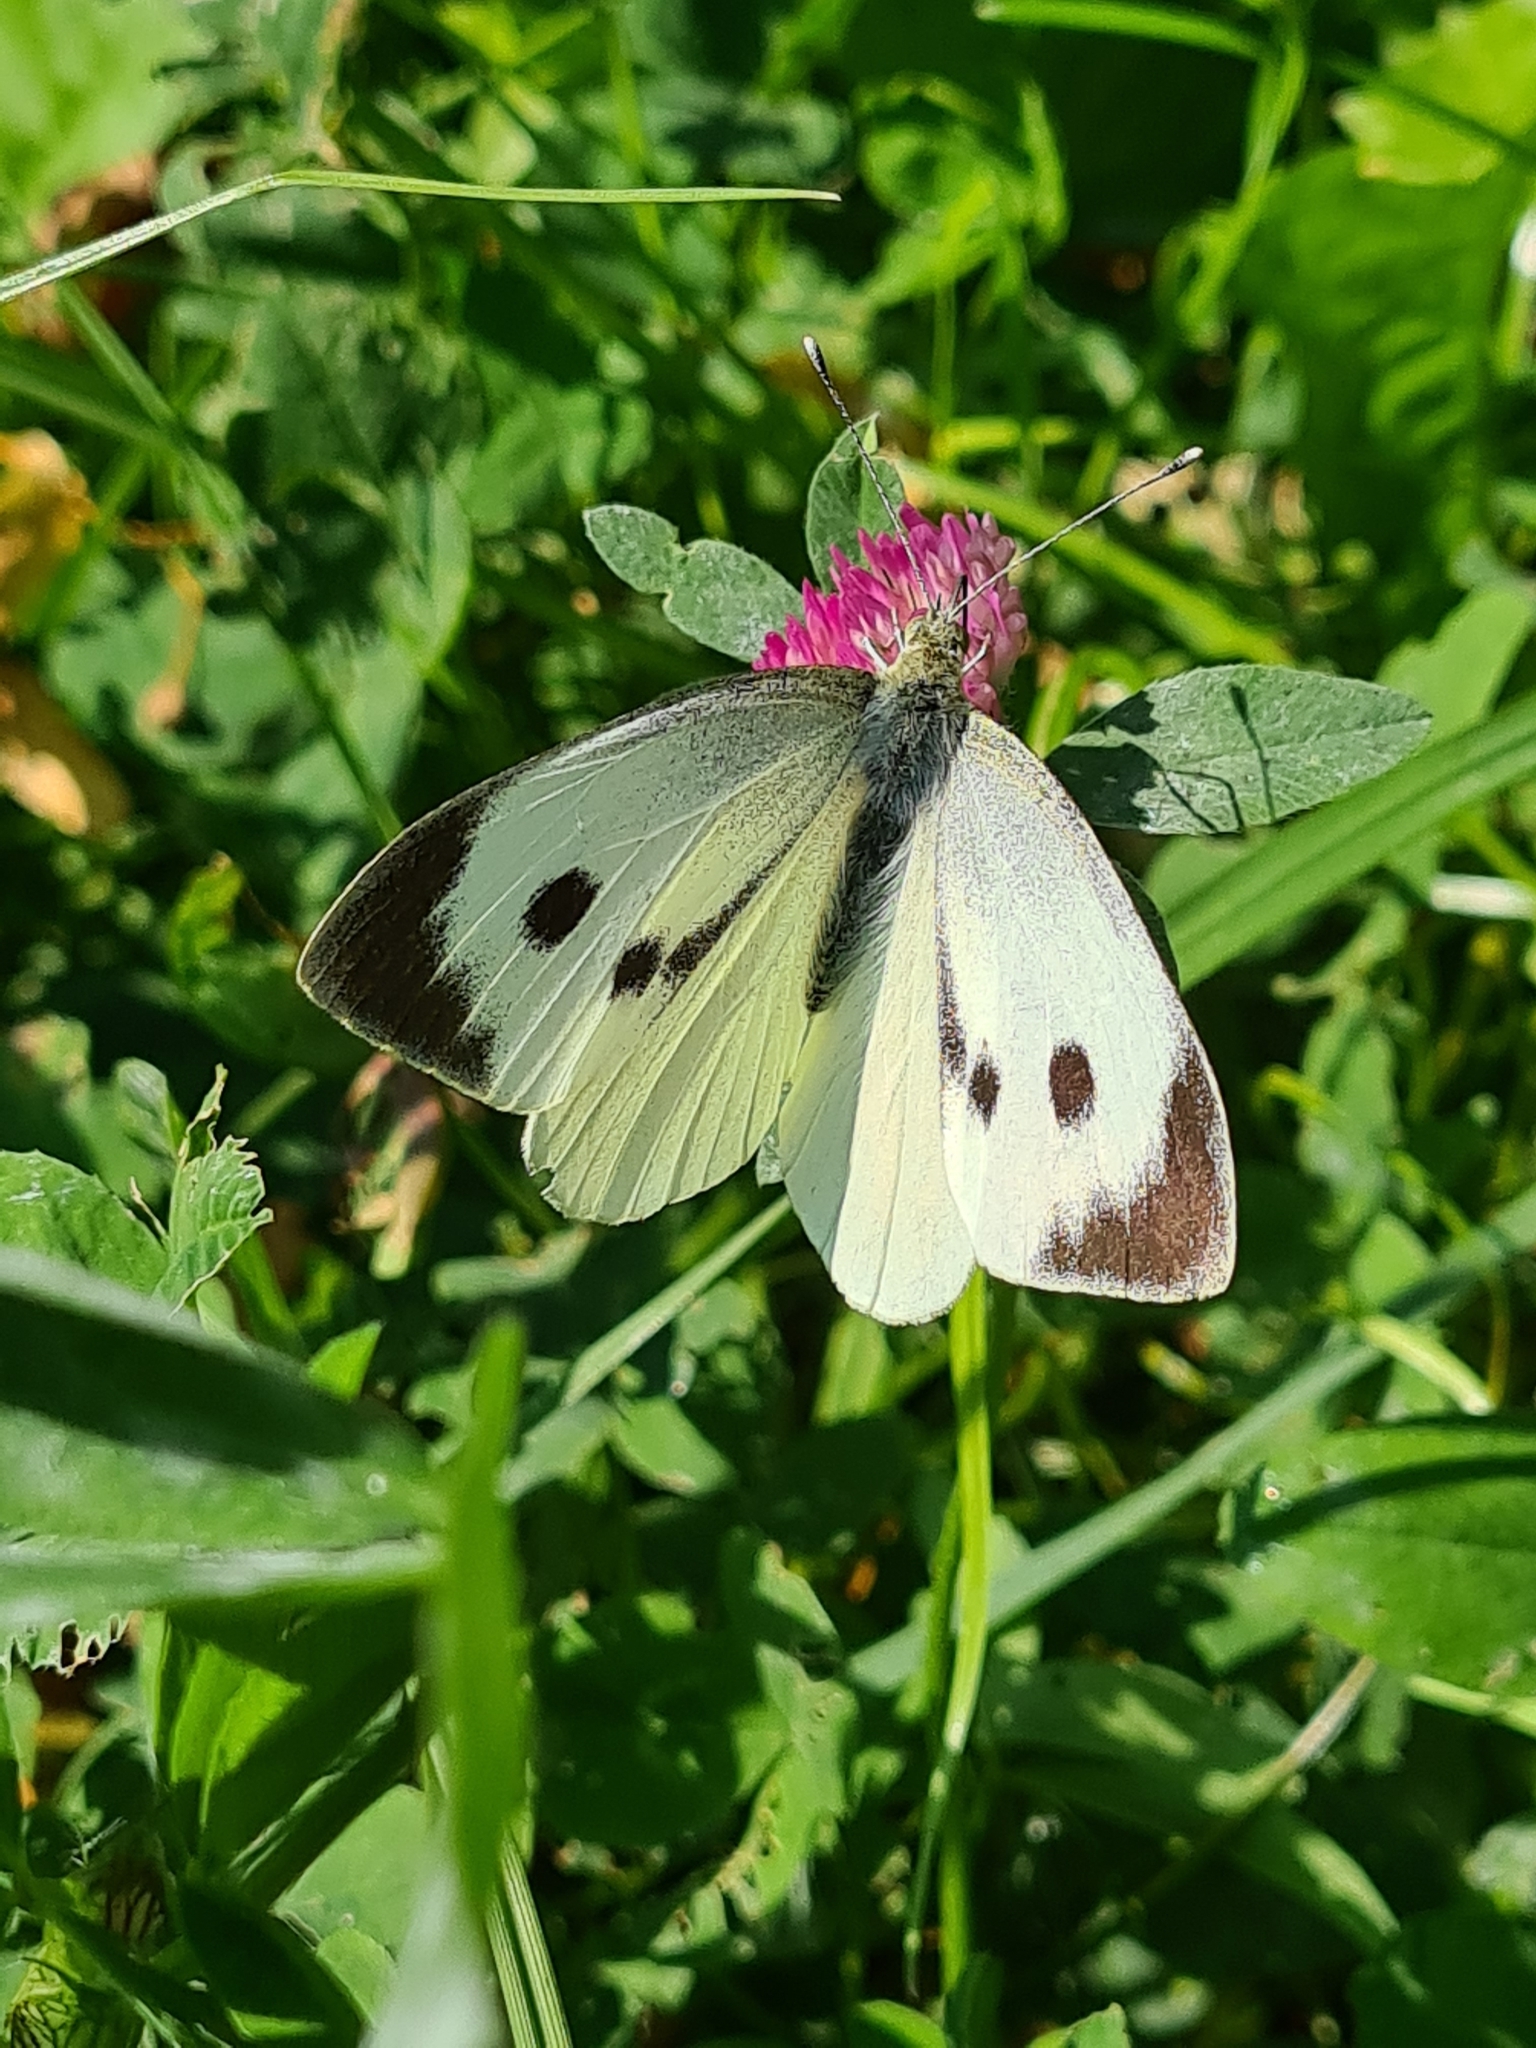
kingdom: Animalia
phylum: Arthropoda
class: Insecta
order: Lepidoptera
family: Pieridae
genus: Pieris
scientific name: Pieris brassicae
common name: Large white
